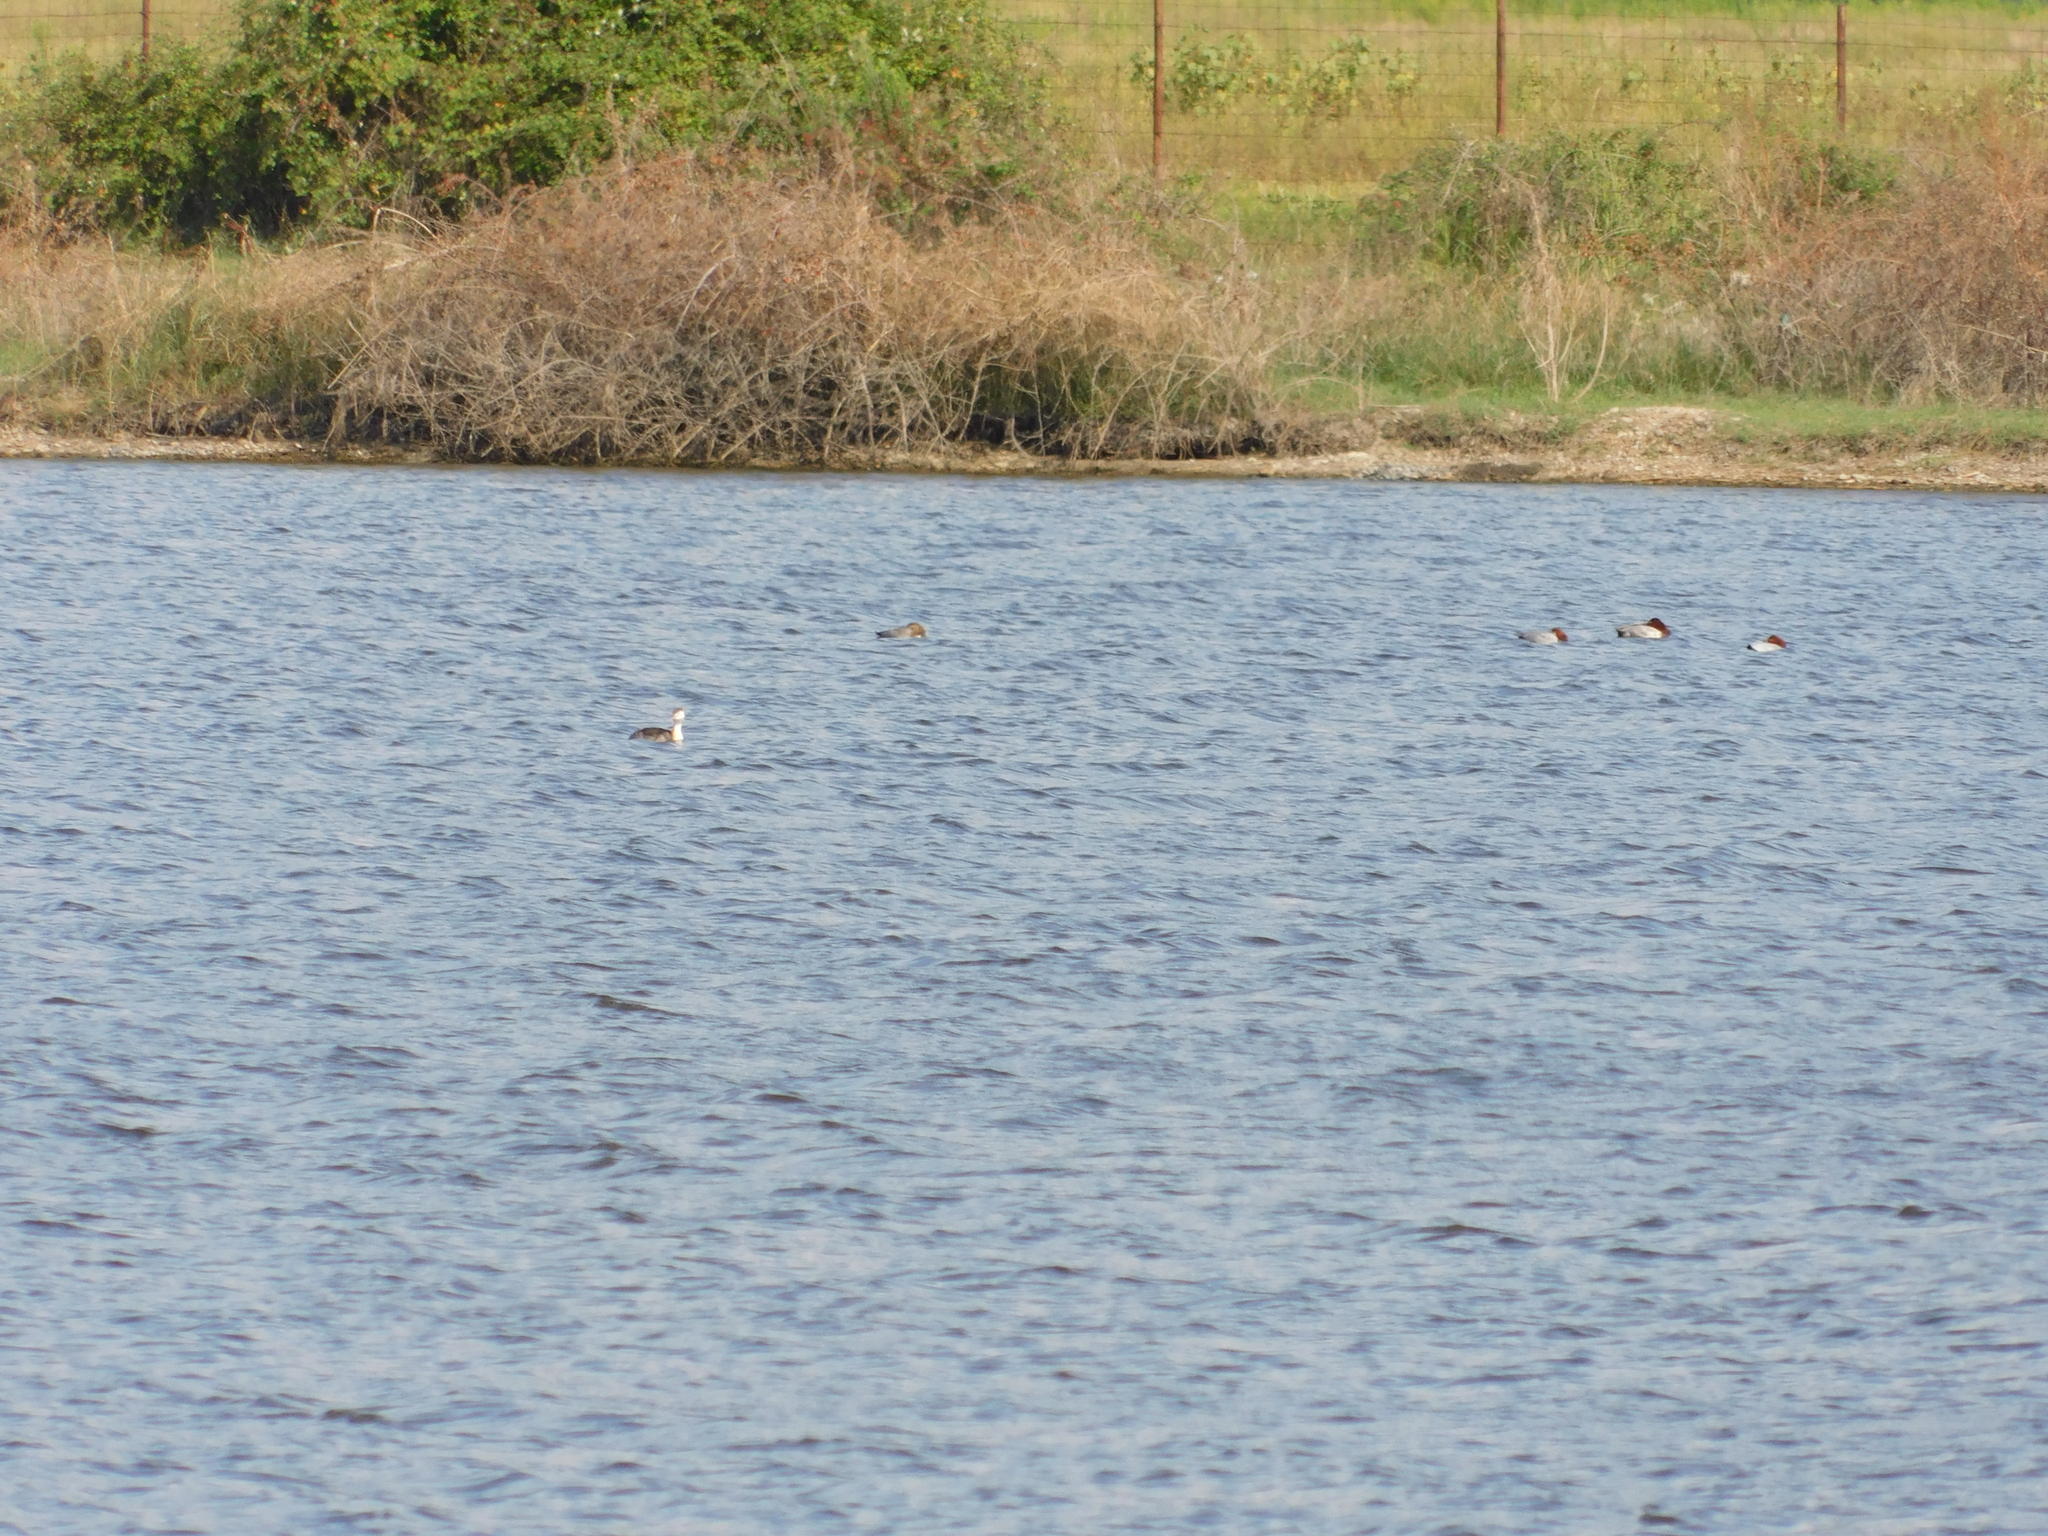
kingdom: Animalia
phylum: Chordata
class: Aves
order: Anseriformes
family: Anatidae
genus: Aythya
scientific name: Aythya ferina
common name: Common pochard
